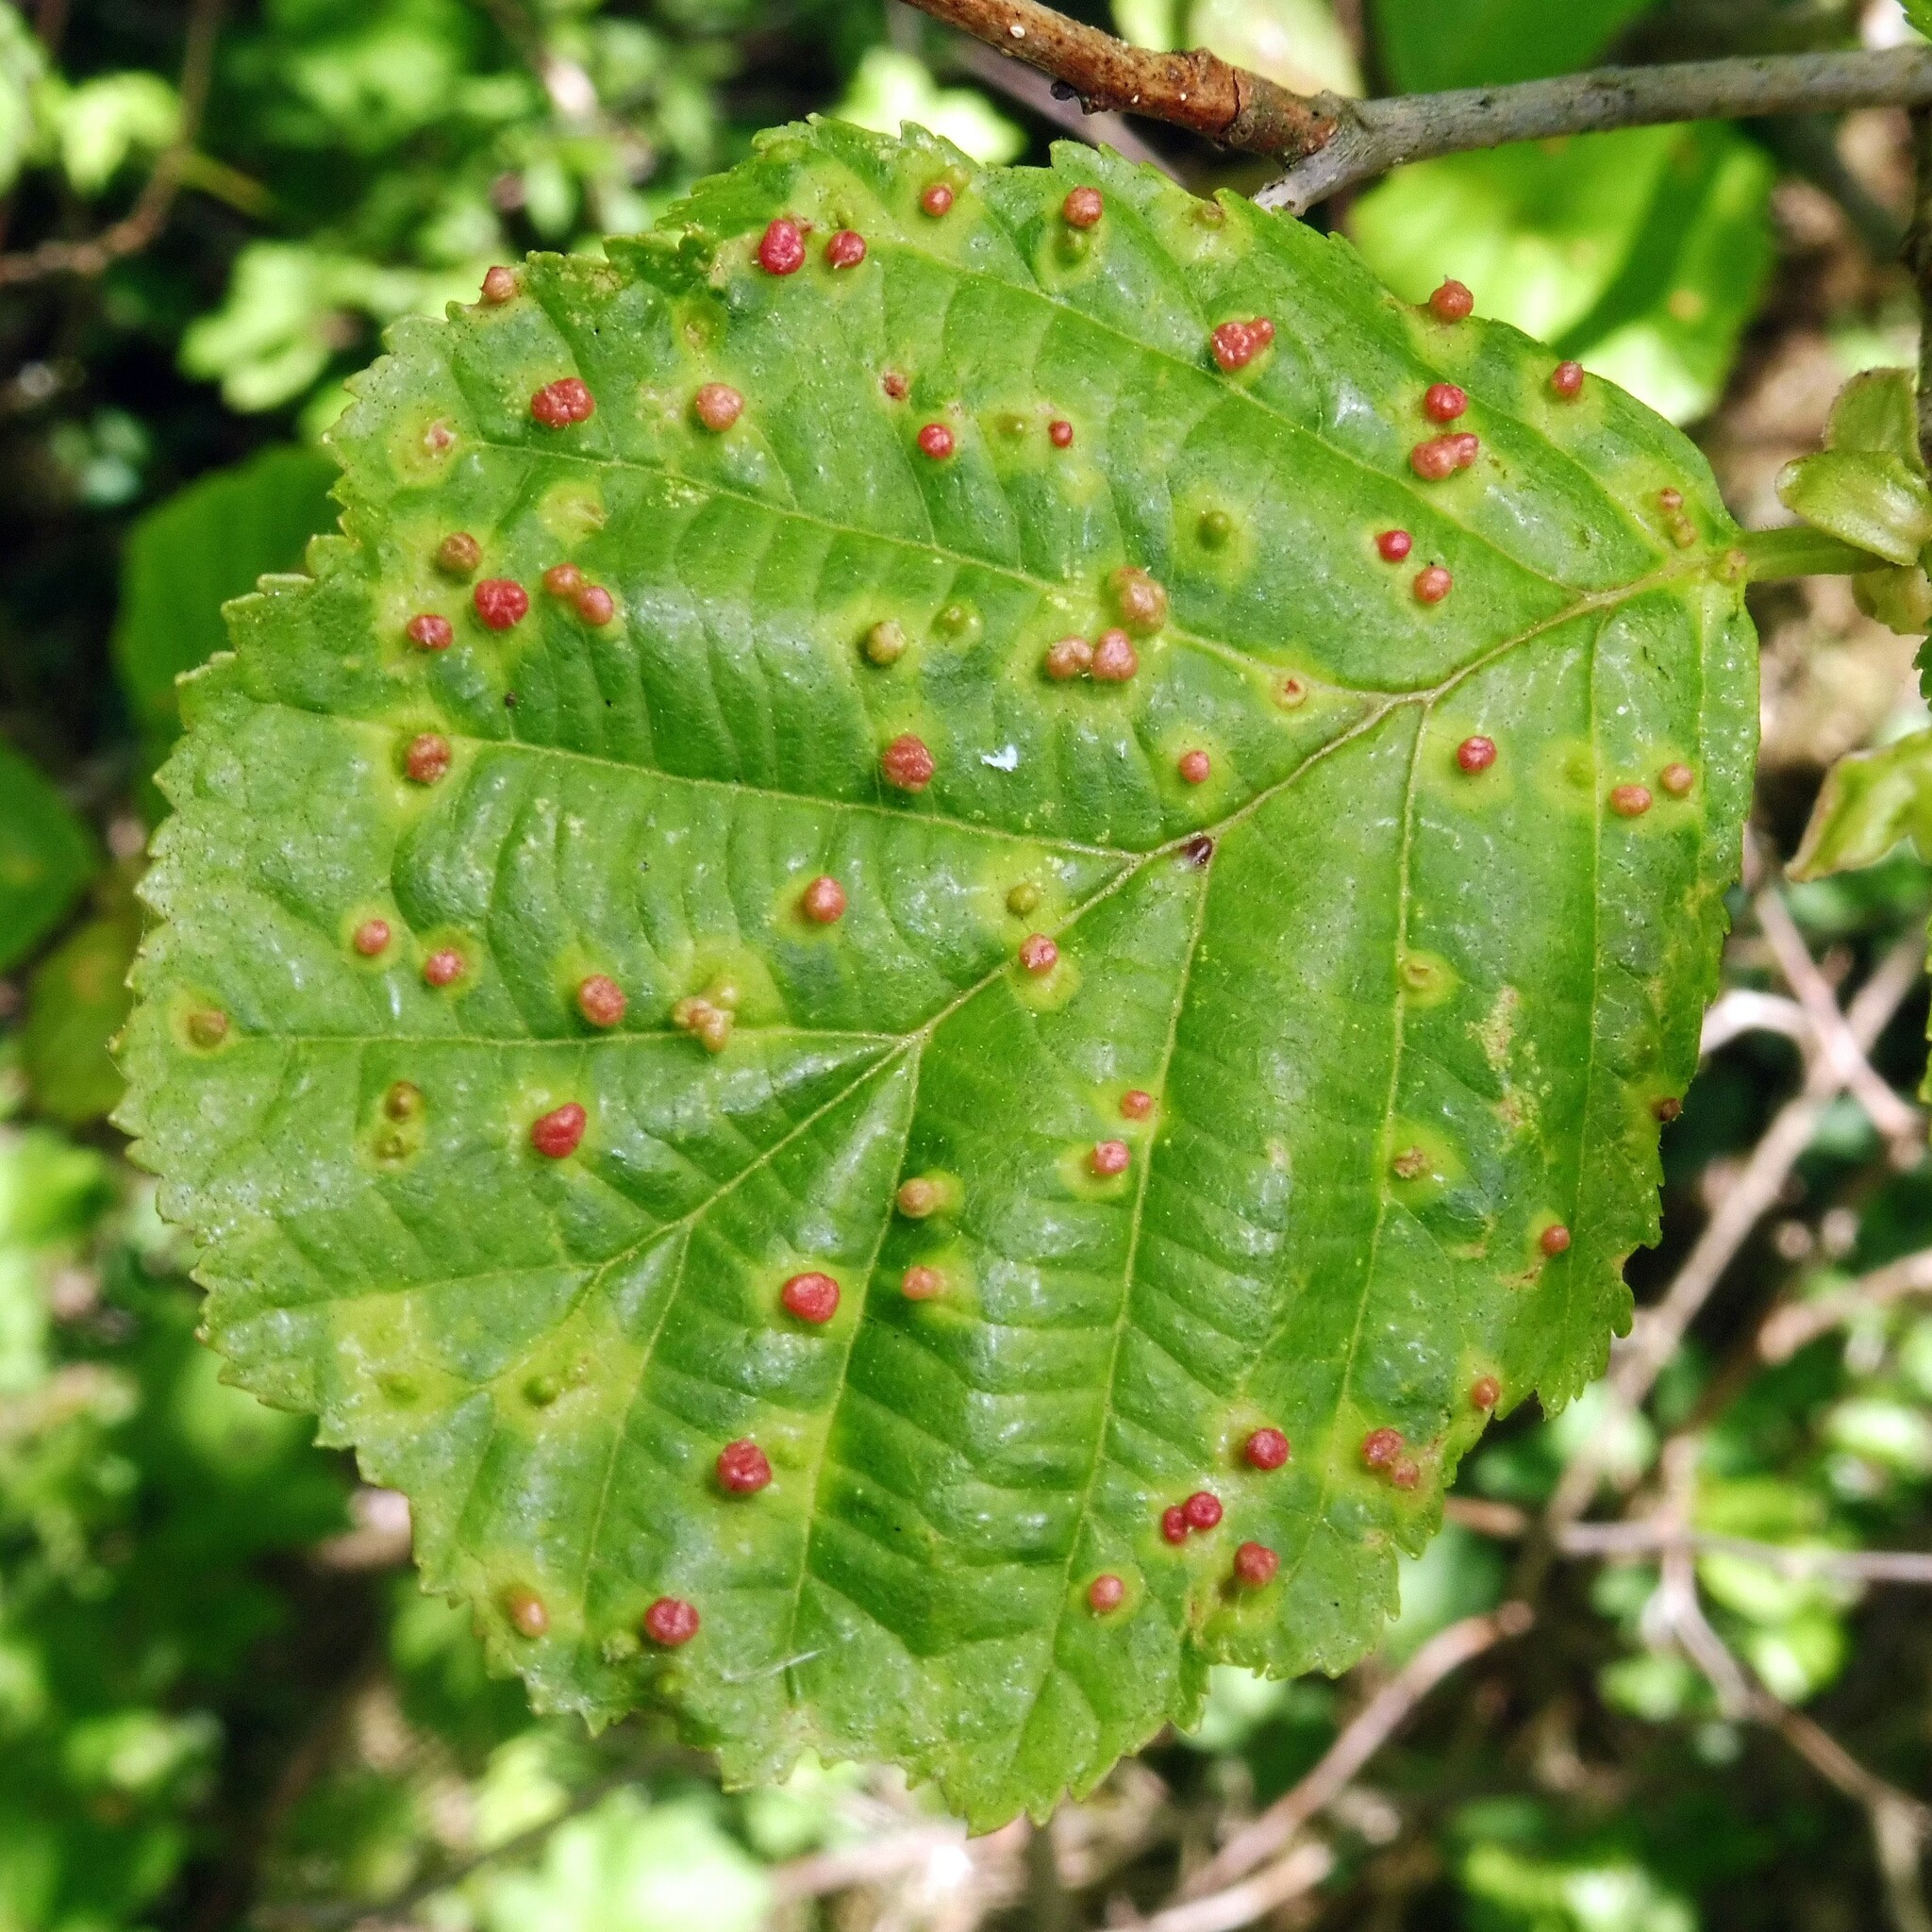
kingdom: Animalia
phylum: Arthropoda
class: Arachnida
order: Trombidiformes
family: Eriophyidae
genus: Eriophyes
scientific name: Eriophyes laevis
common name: Alder leaf gall mite
